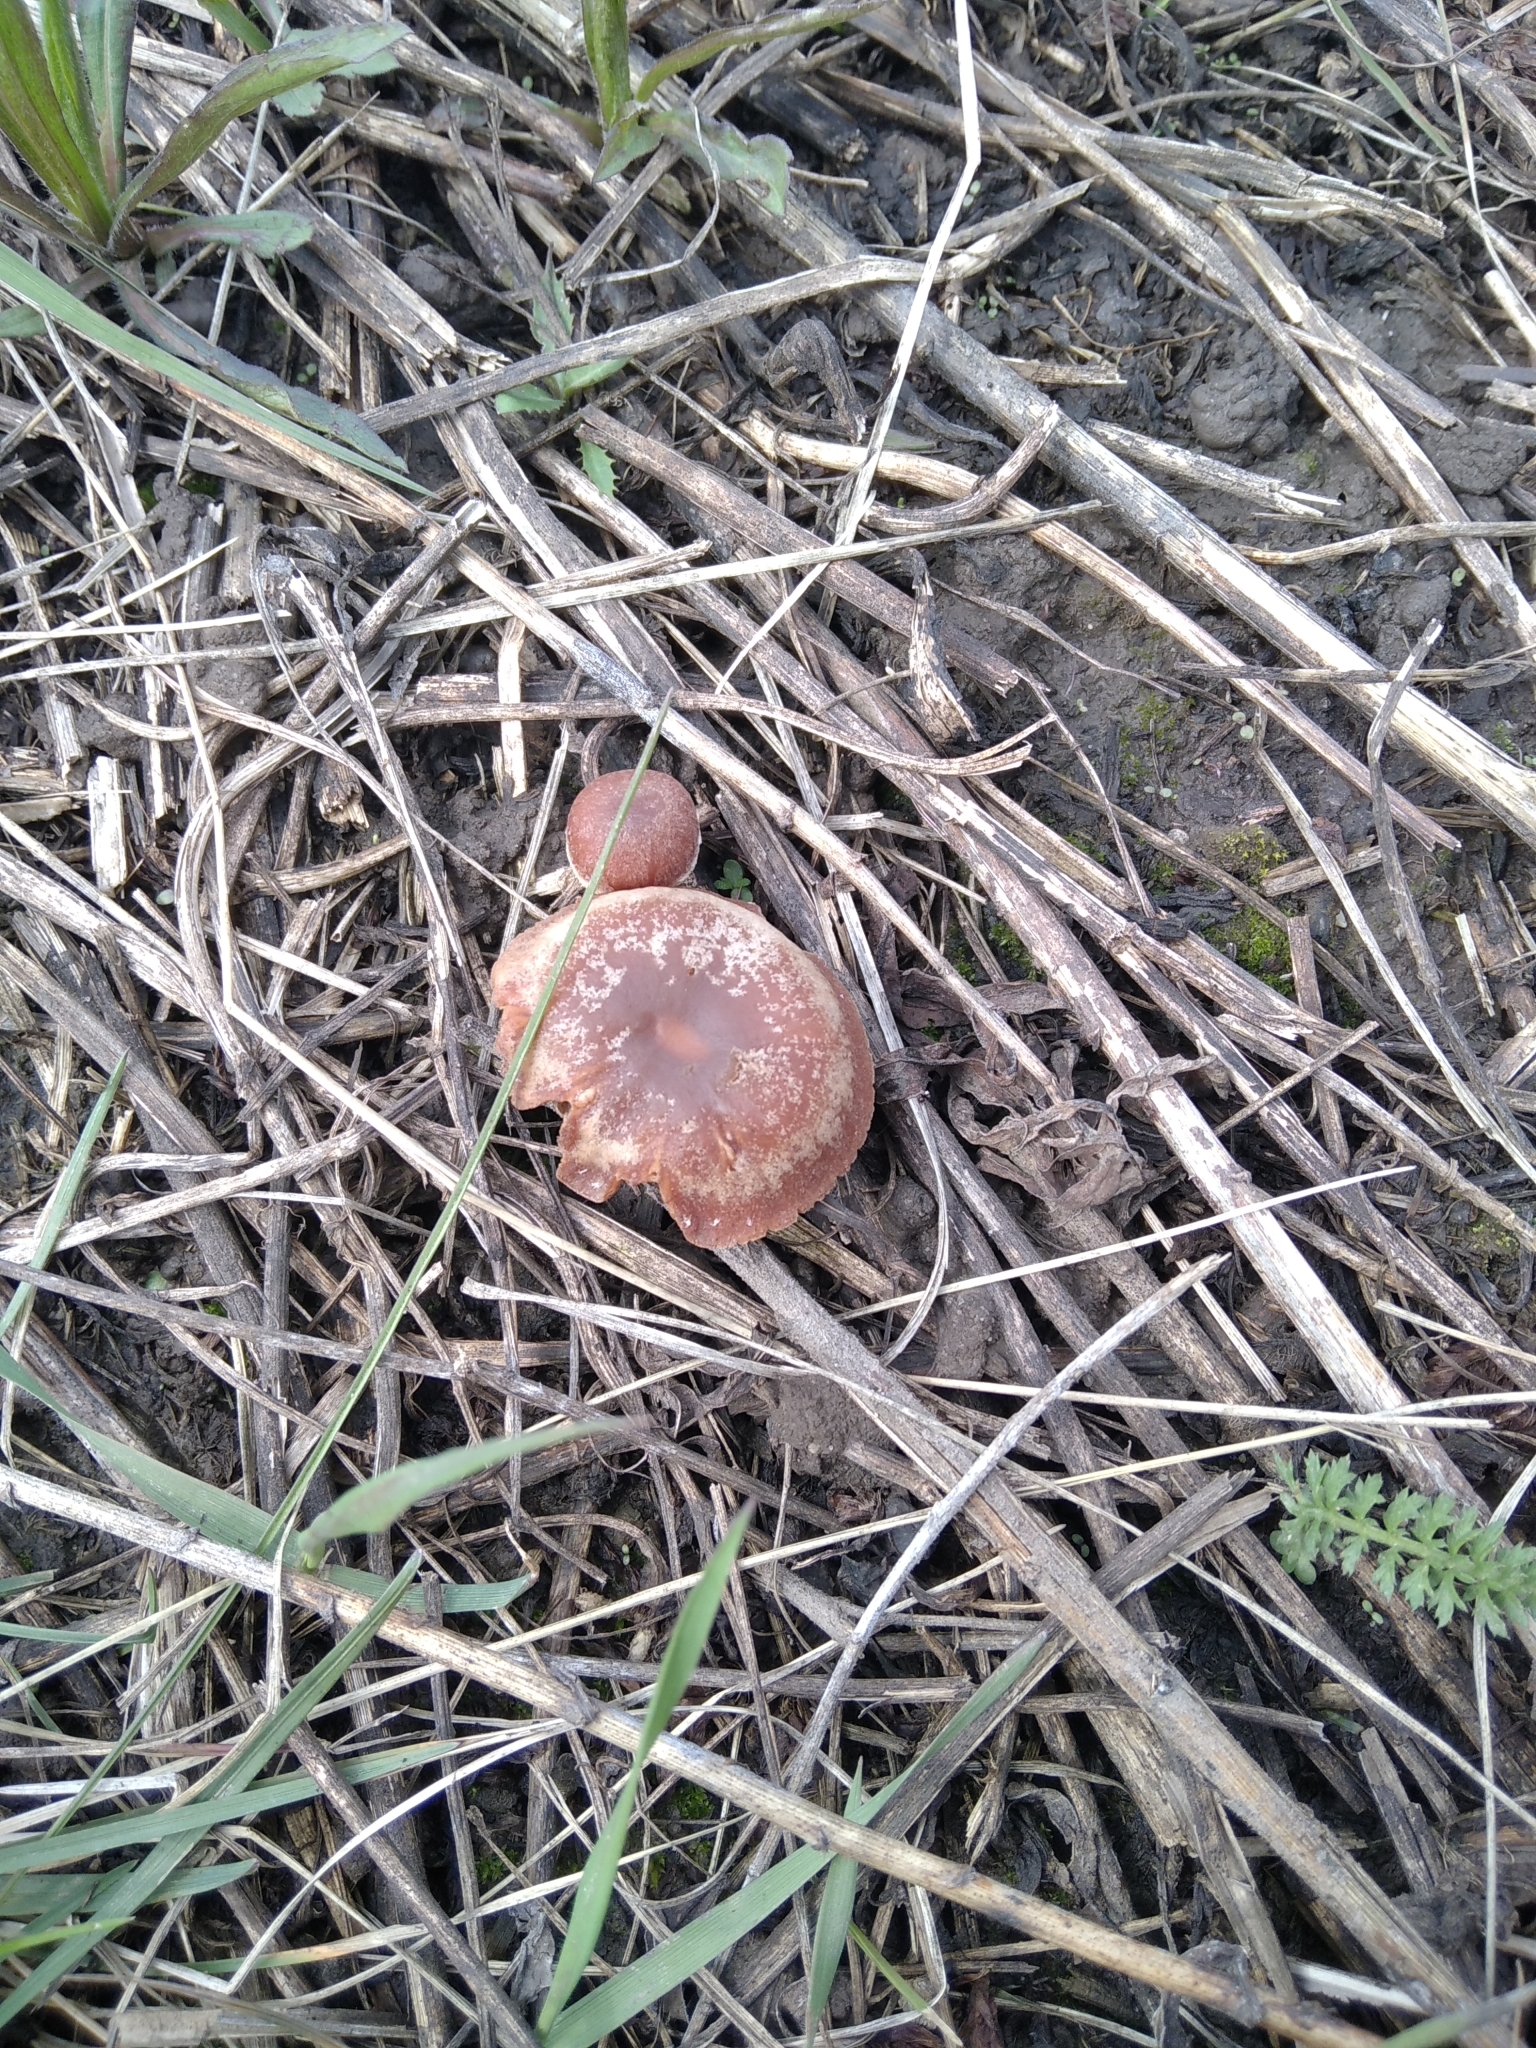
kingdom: Fungi
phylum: Basidiomycota
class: Agaricomycetes
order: Agaricales
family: Tubariaceae
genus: Tubaria
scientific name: Tubaria furfuracea
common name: Scurfy twiglet
